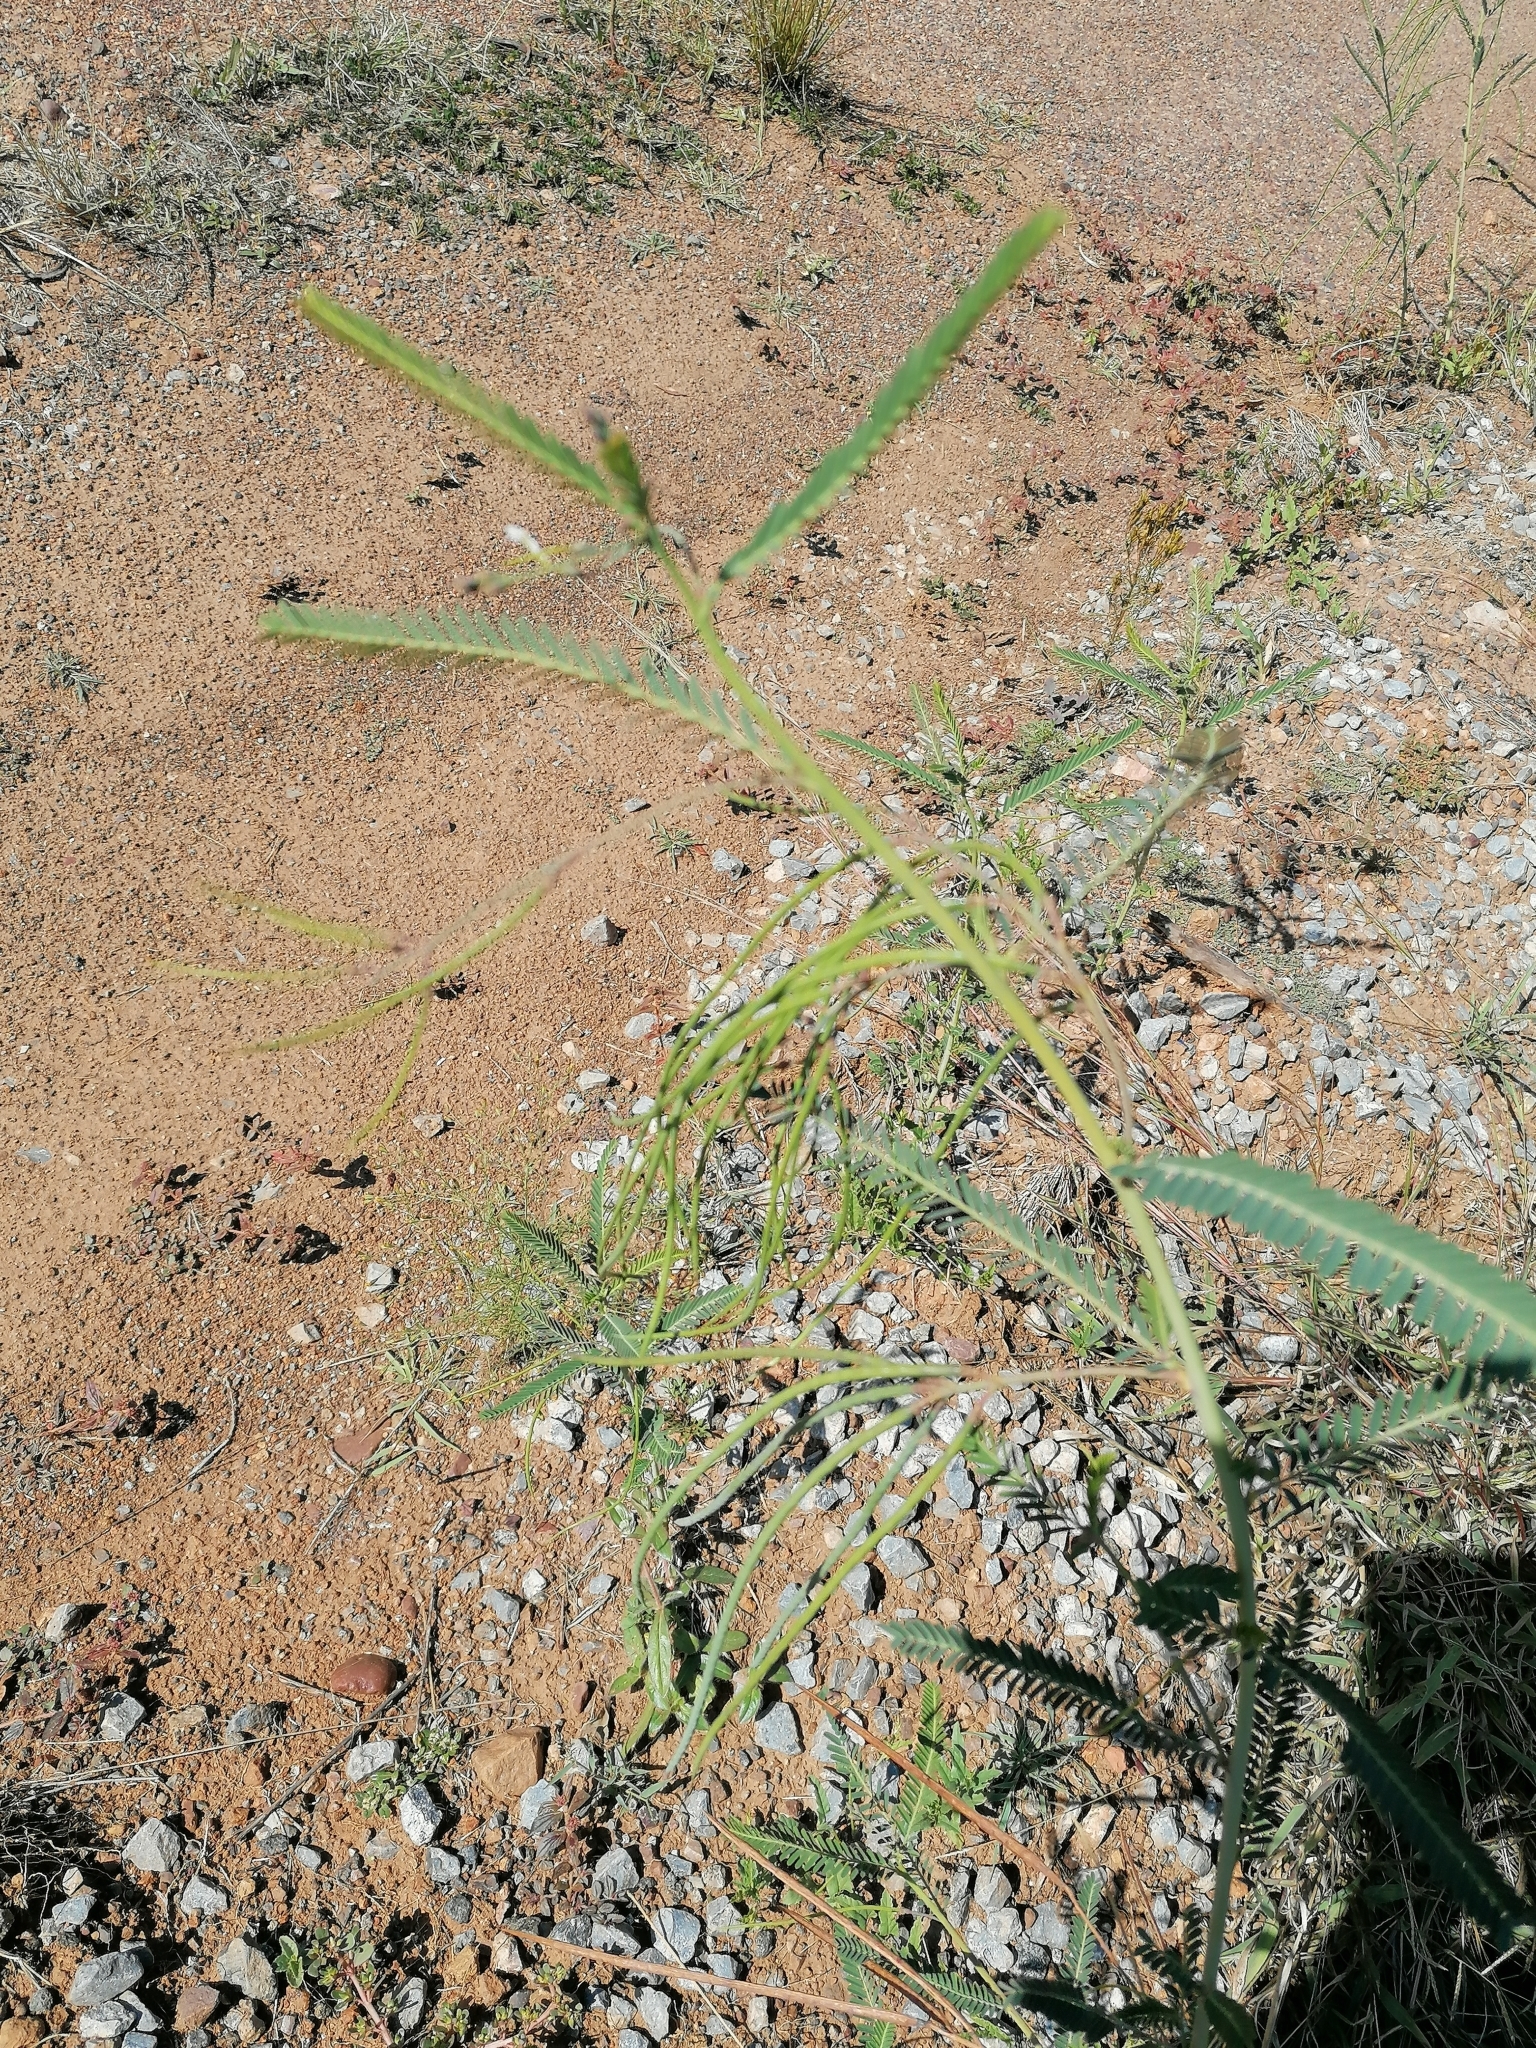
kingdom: Plantae
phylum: Tracheophyta
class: Magnoliopsida
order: Fabales
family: Fabaceae
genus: Sesbania
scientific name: Sesbania bispinosa
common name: Sesbania pea
